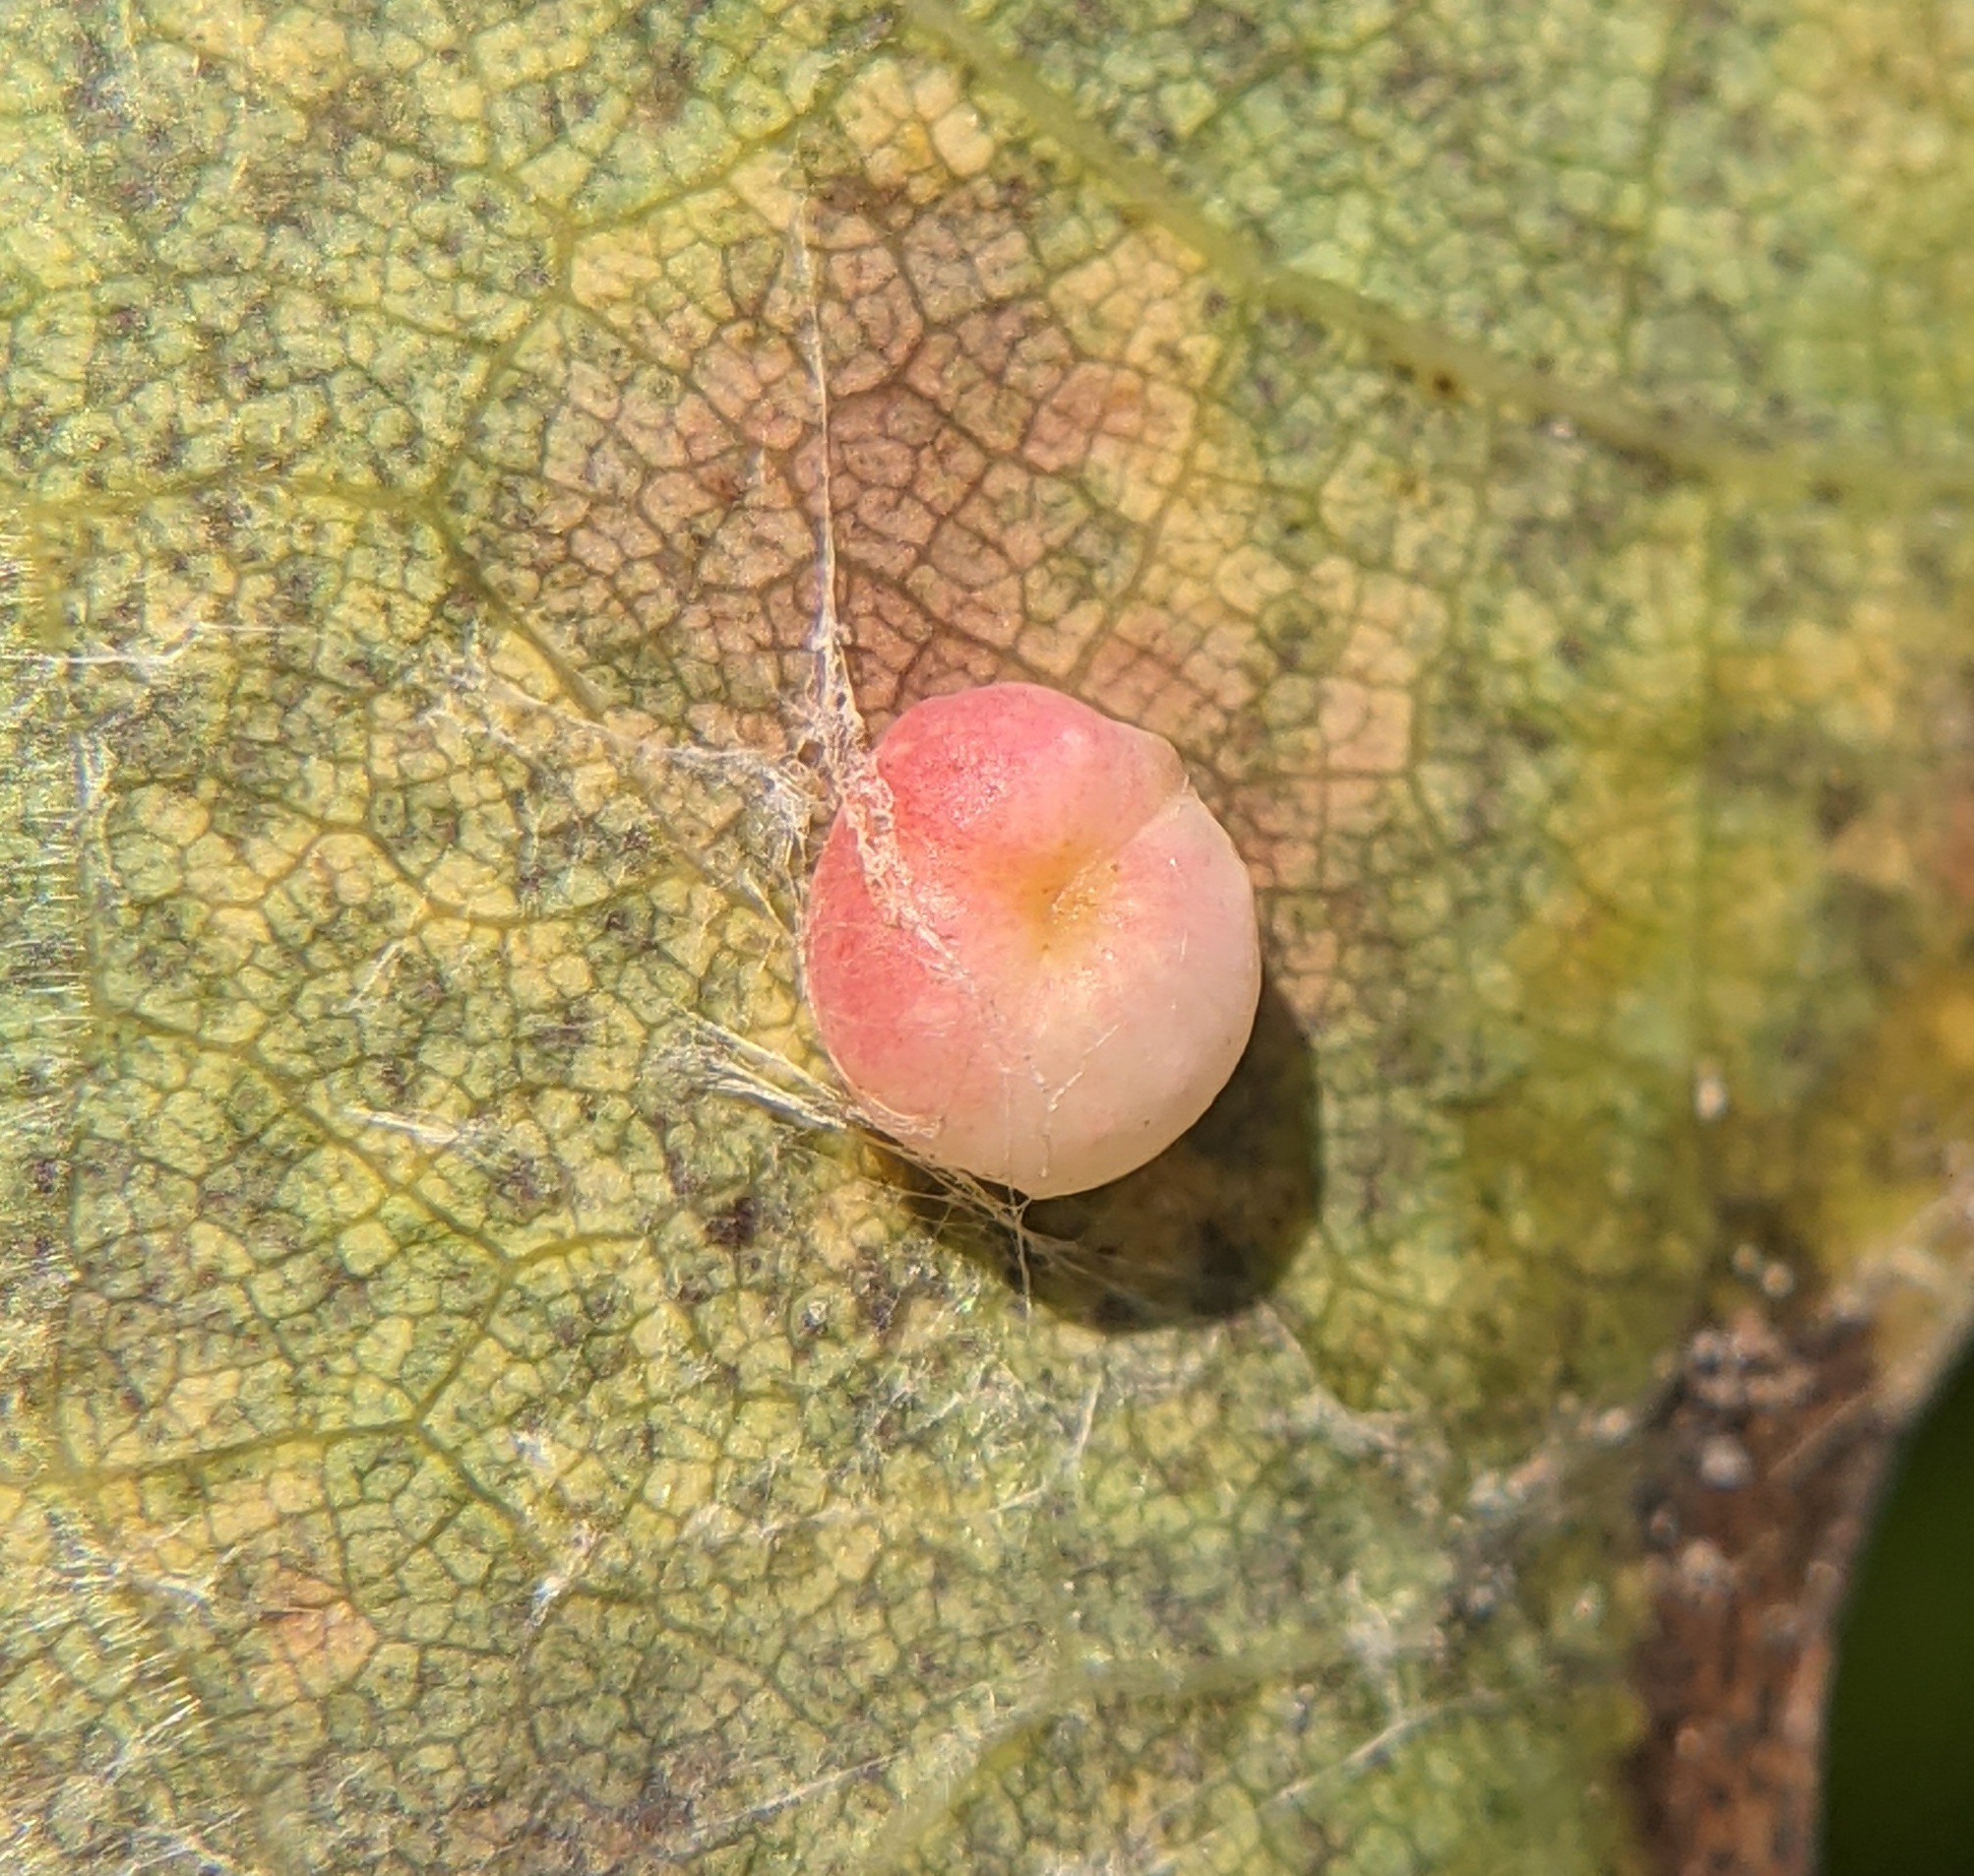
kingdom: Animalia
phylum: Arthropoda
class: Insecta
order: Hymenoptera
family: Cynipidae
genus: Zopheroteras
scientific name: Zopheroteras
